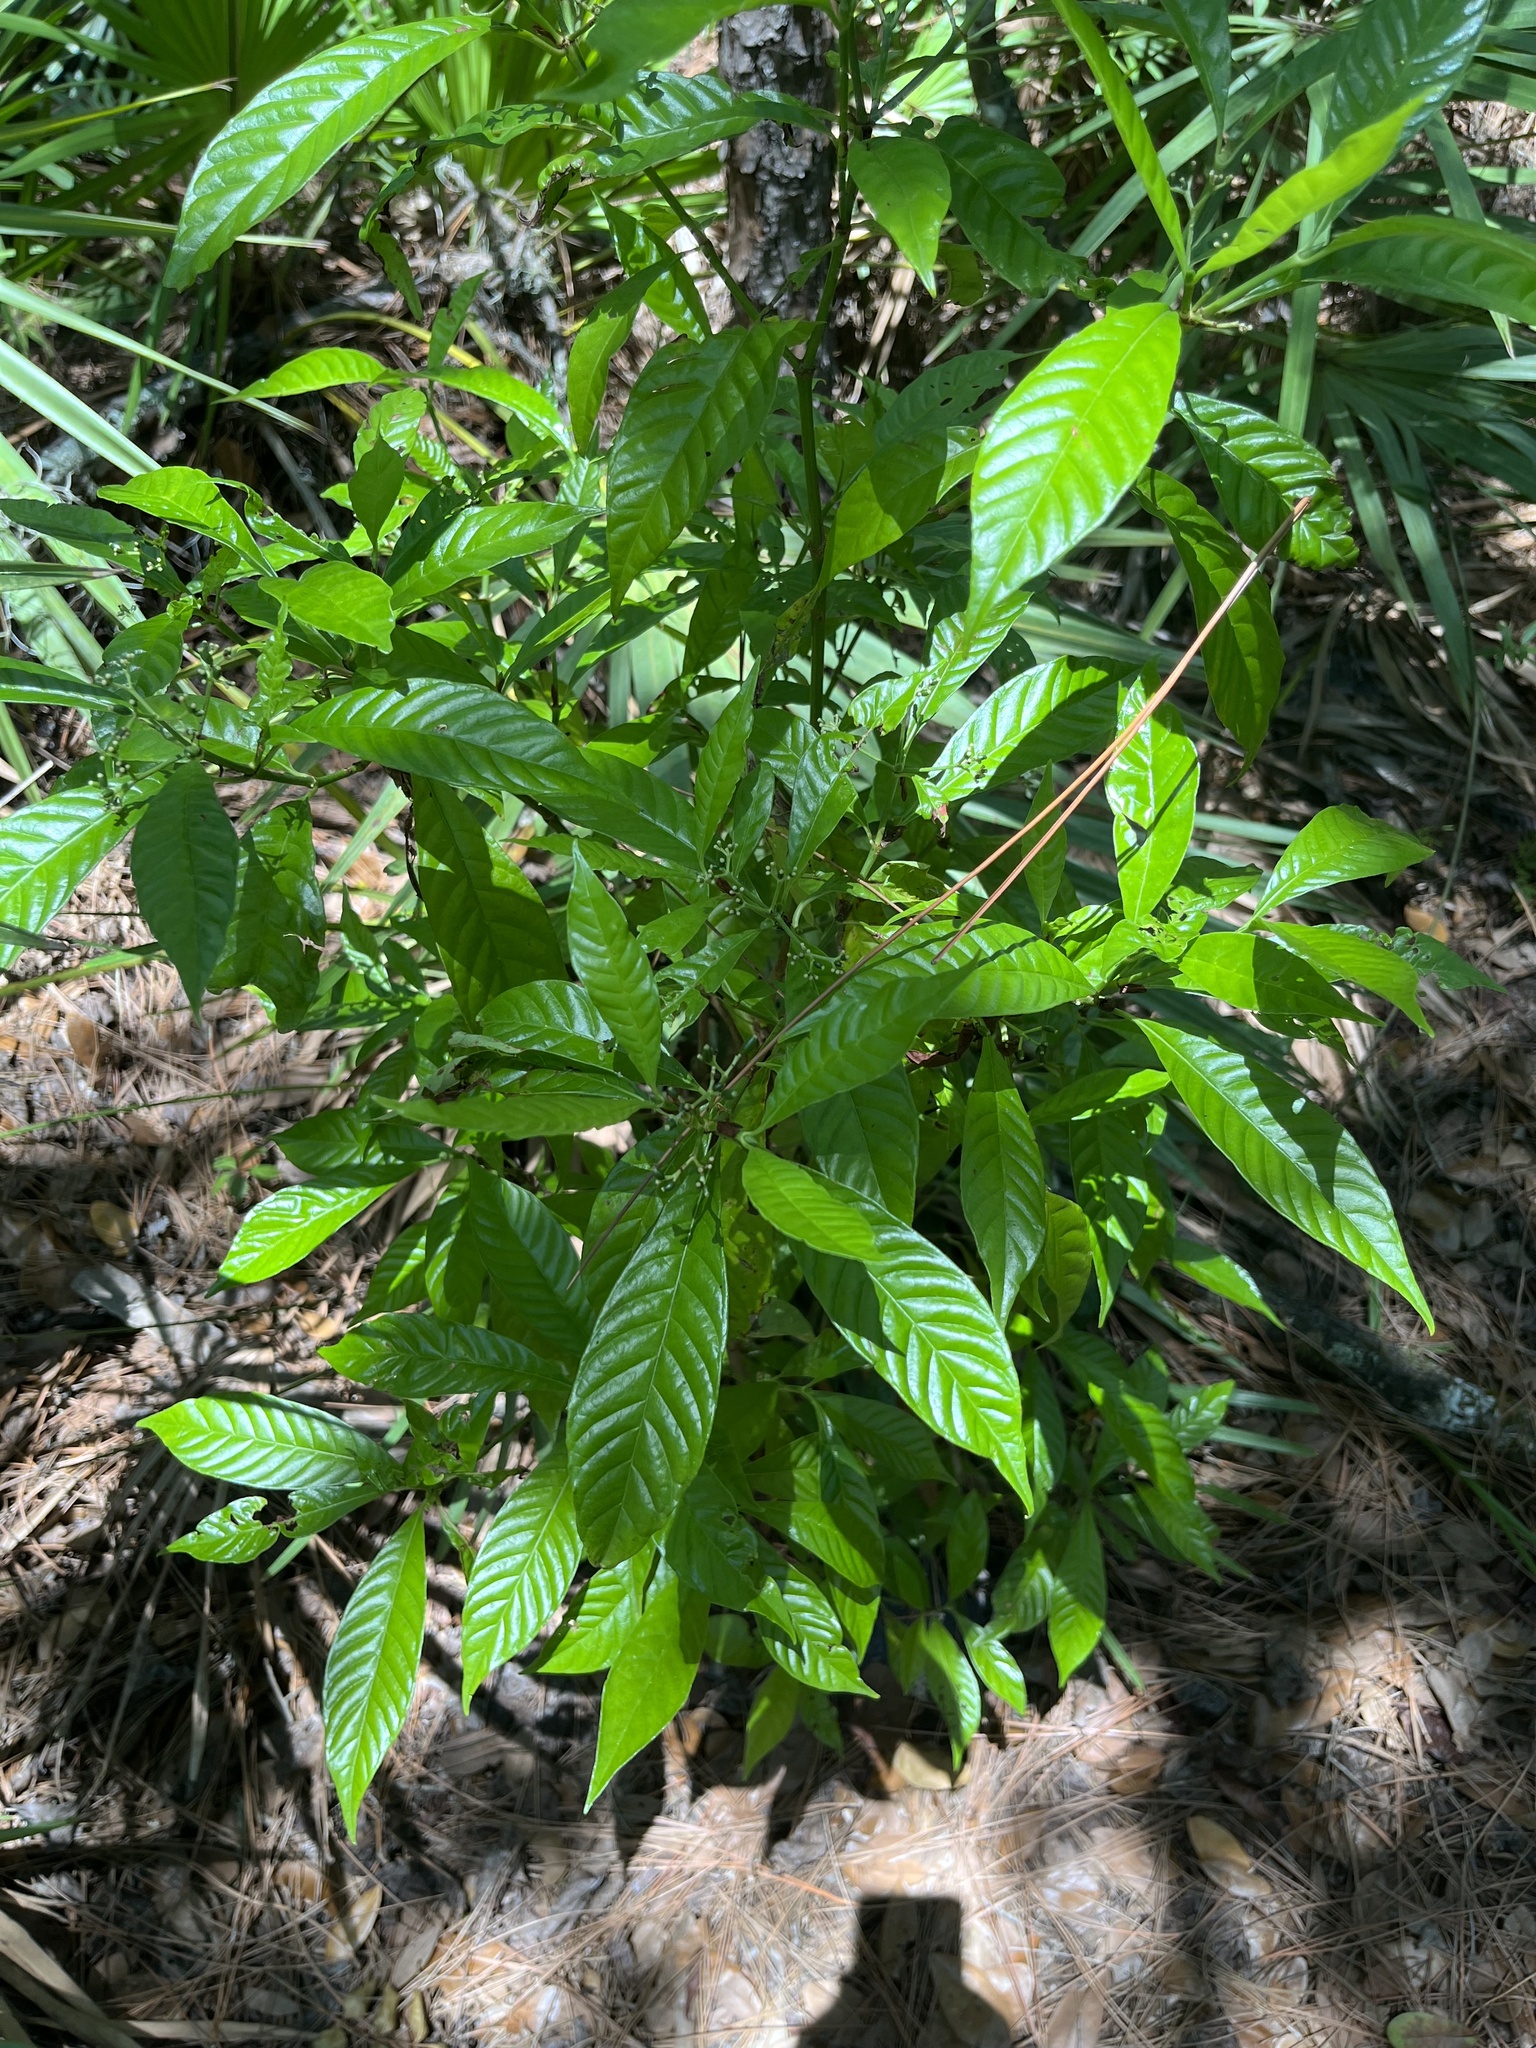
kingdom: Plantae
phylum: Tracheophyta
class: Magnoliopsida
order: Gentianales
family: Rubiaceae
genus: Psychotria
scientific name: Psychotria nervosa
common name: Bastard cankerberry
